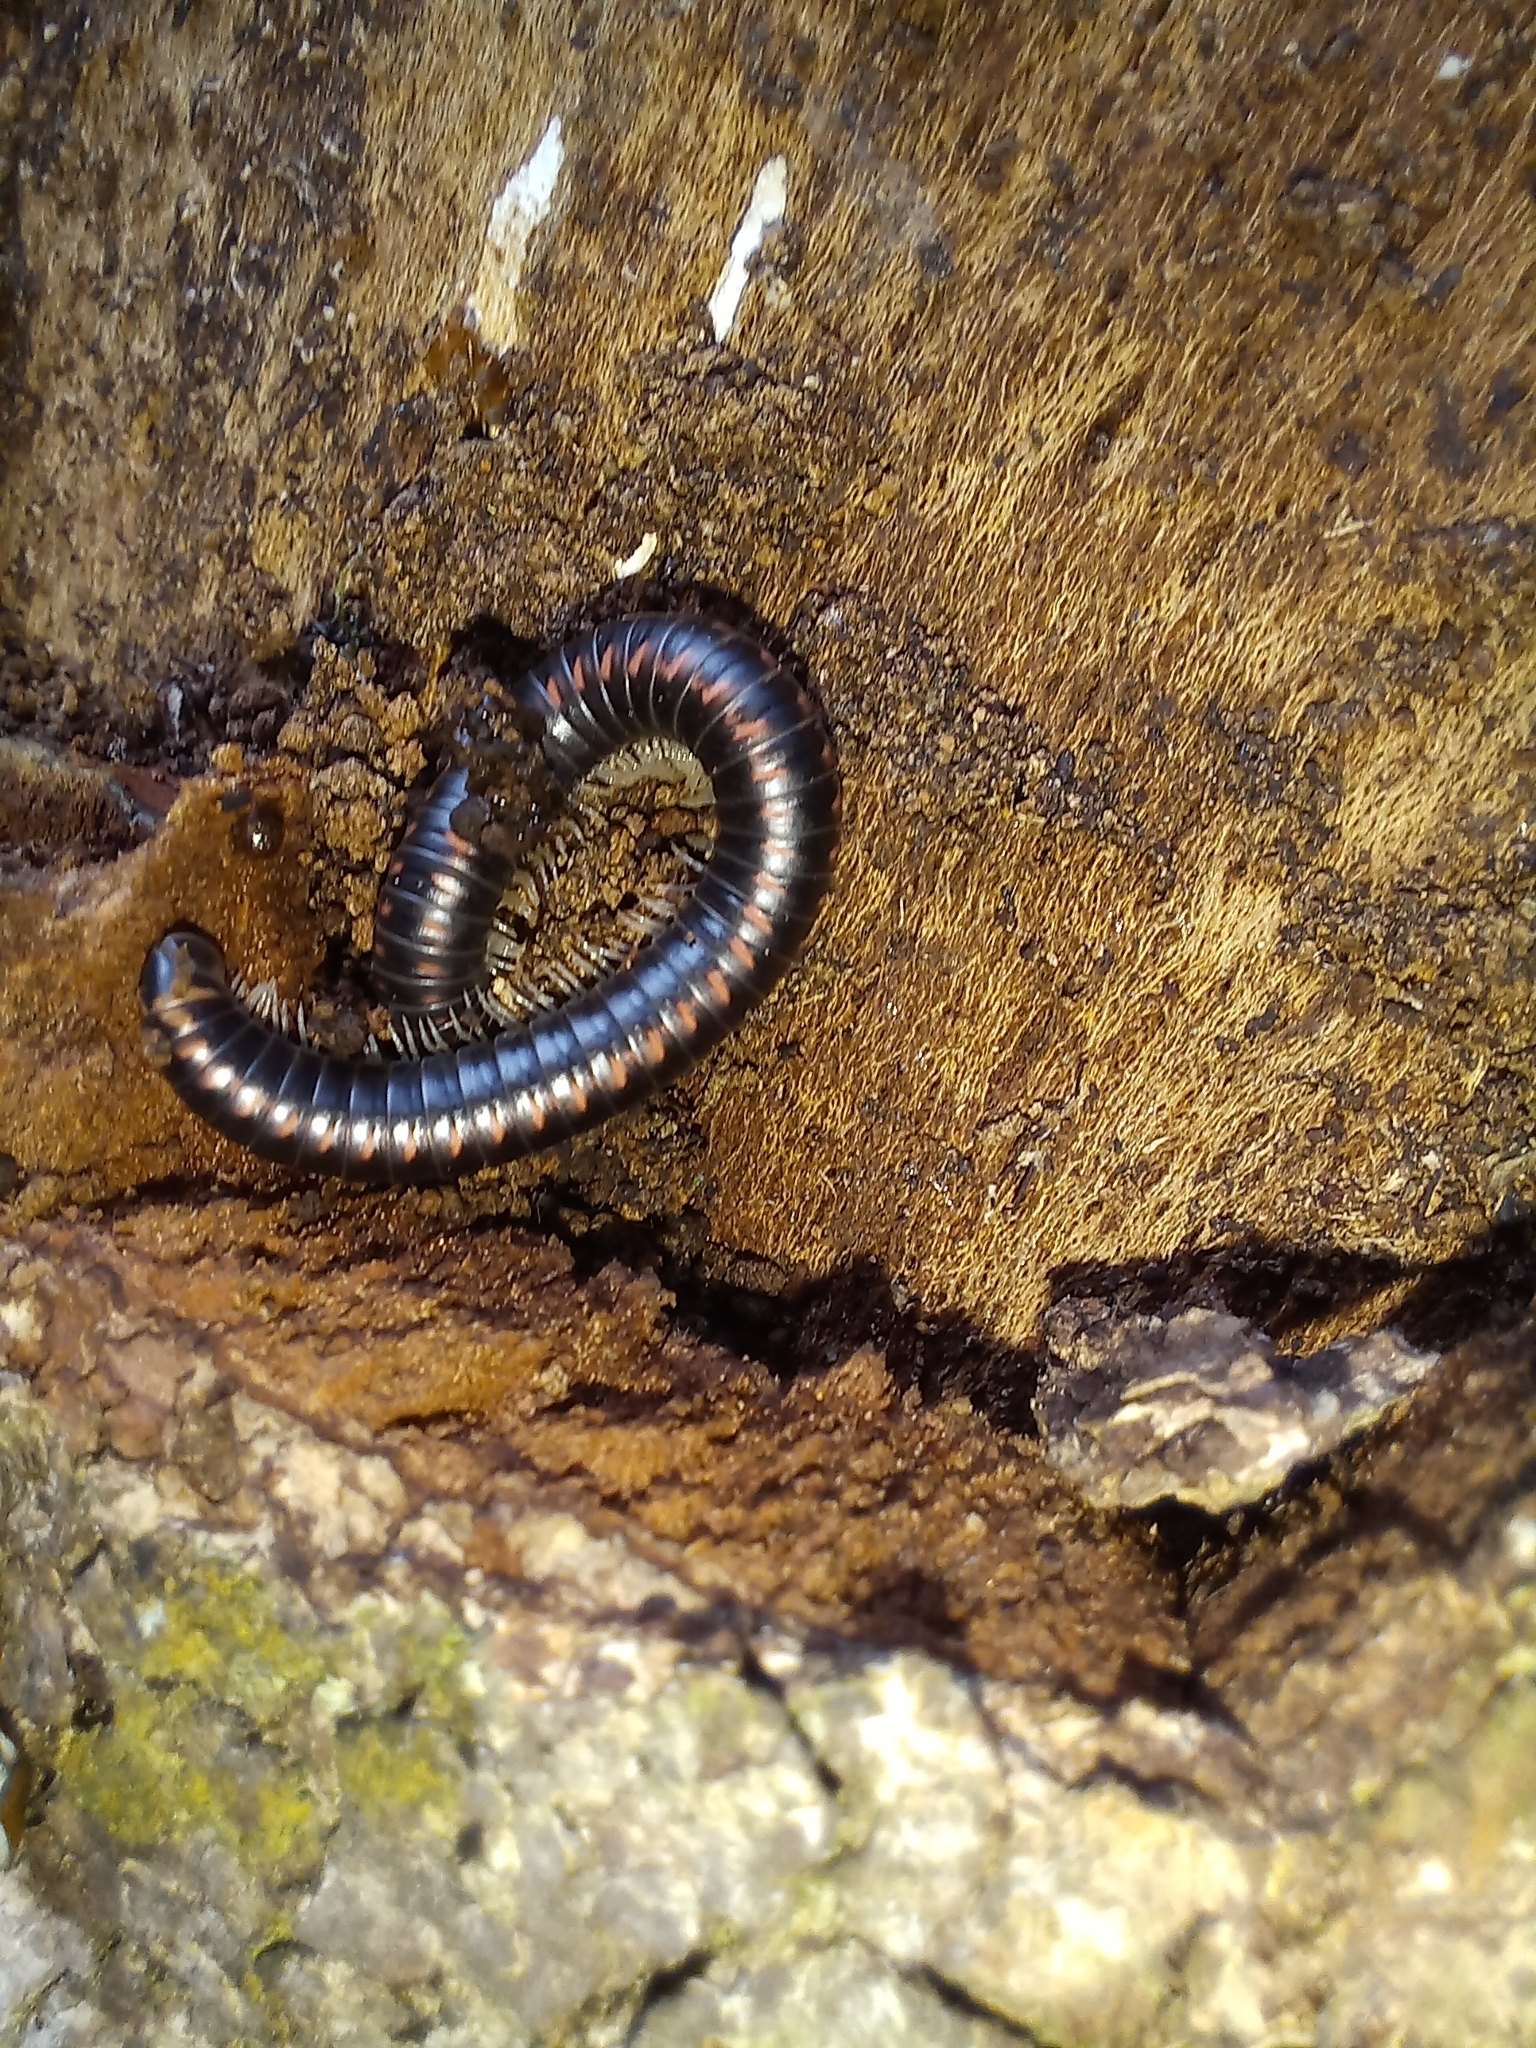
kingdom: Animalia
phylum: Arthropoda
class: Diplopoda
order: Spirobolida
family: Spirobolellidae
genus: Spirobolellus
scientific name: Spirobolellus antipodarum
